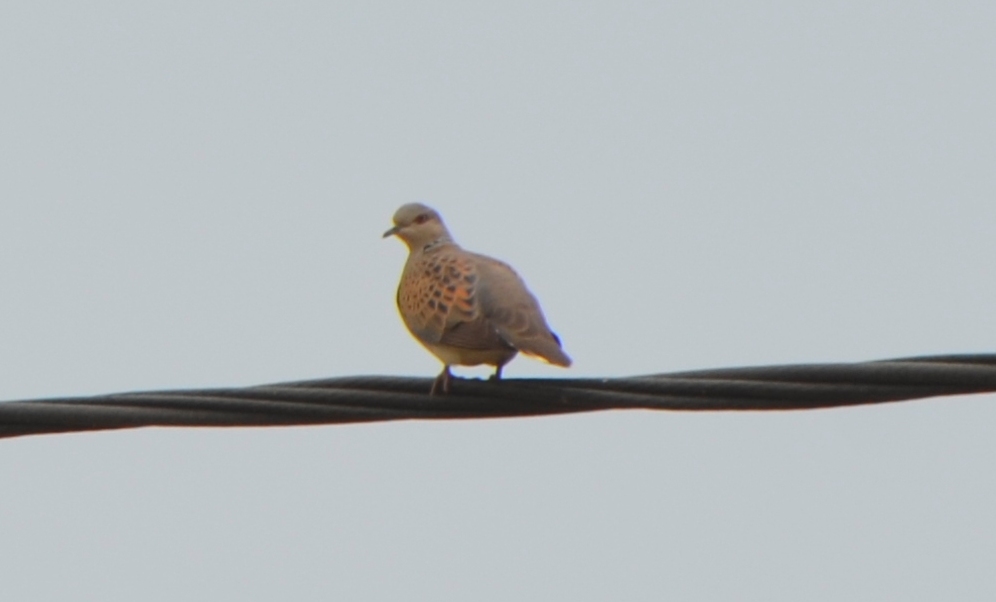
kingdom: Animalia
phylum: Chordata
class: Aves
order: Columbiformes
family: Columbidae
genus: Streptopelia
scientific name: Streptopelia turtur
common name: European turtle dove
